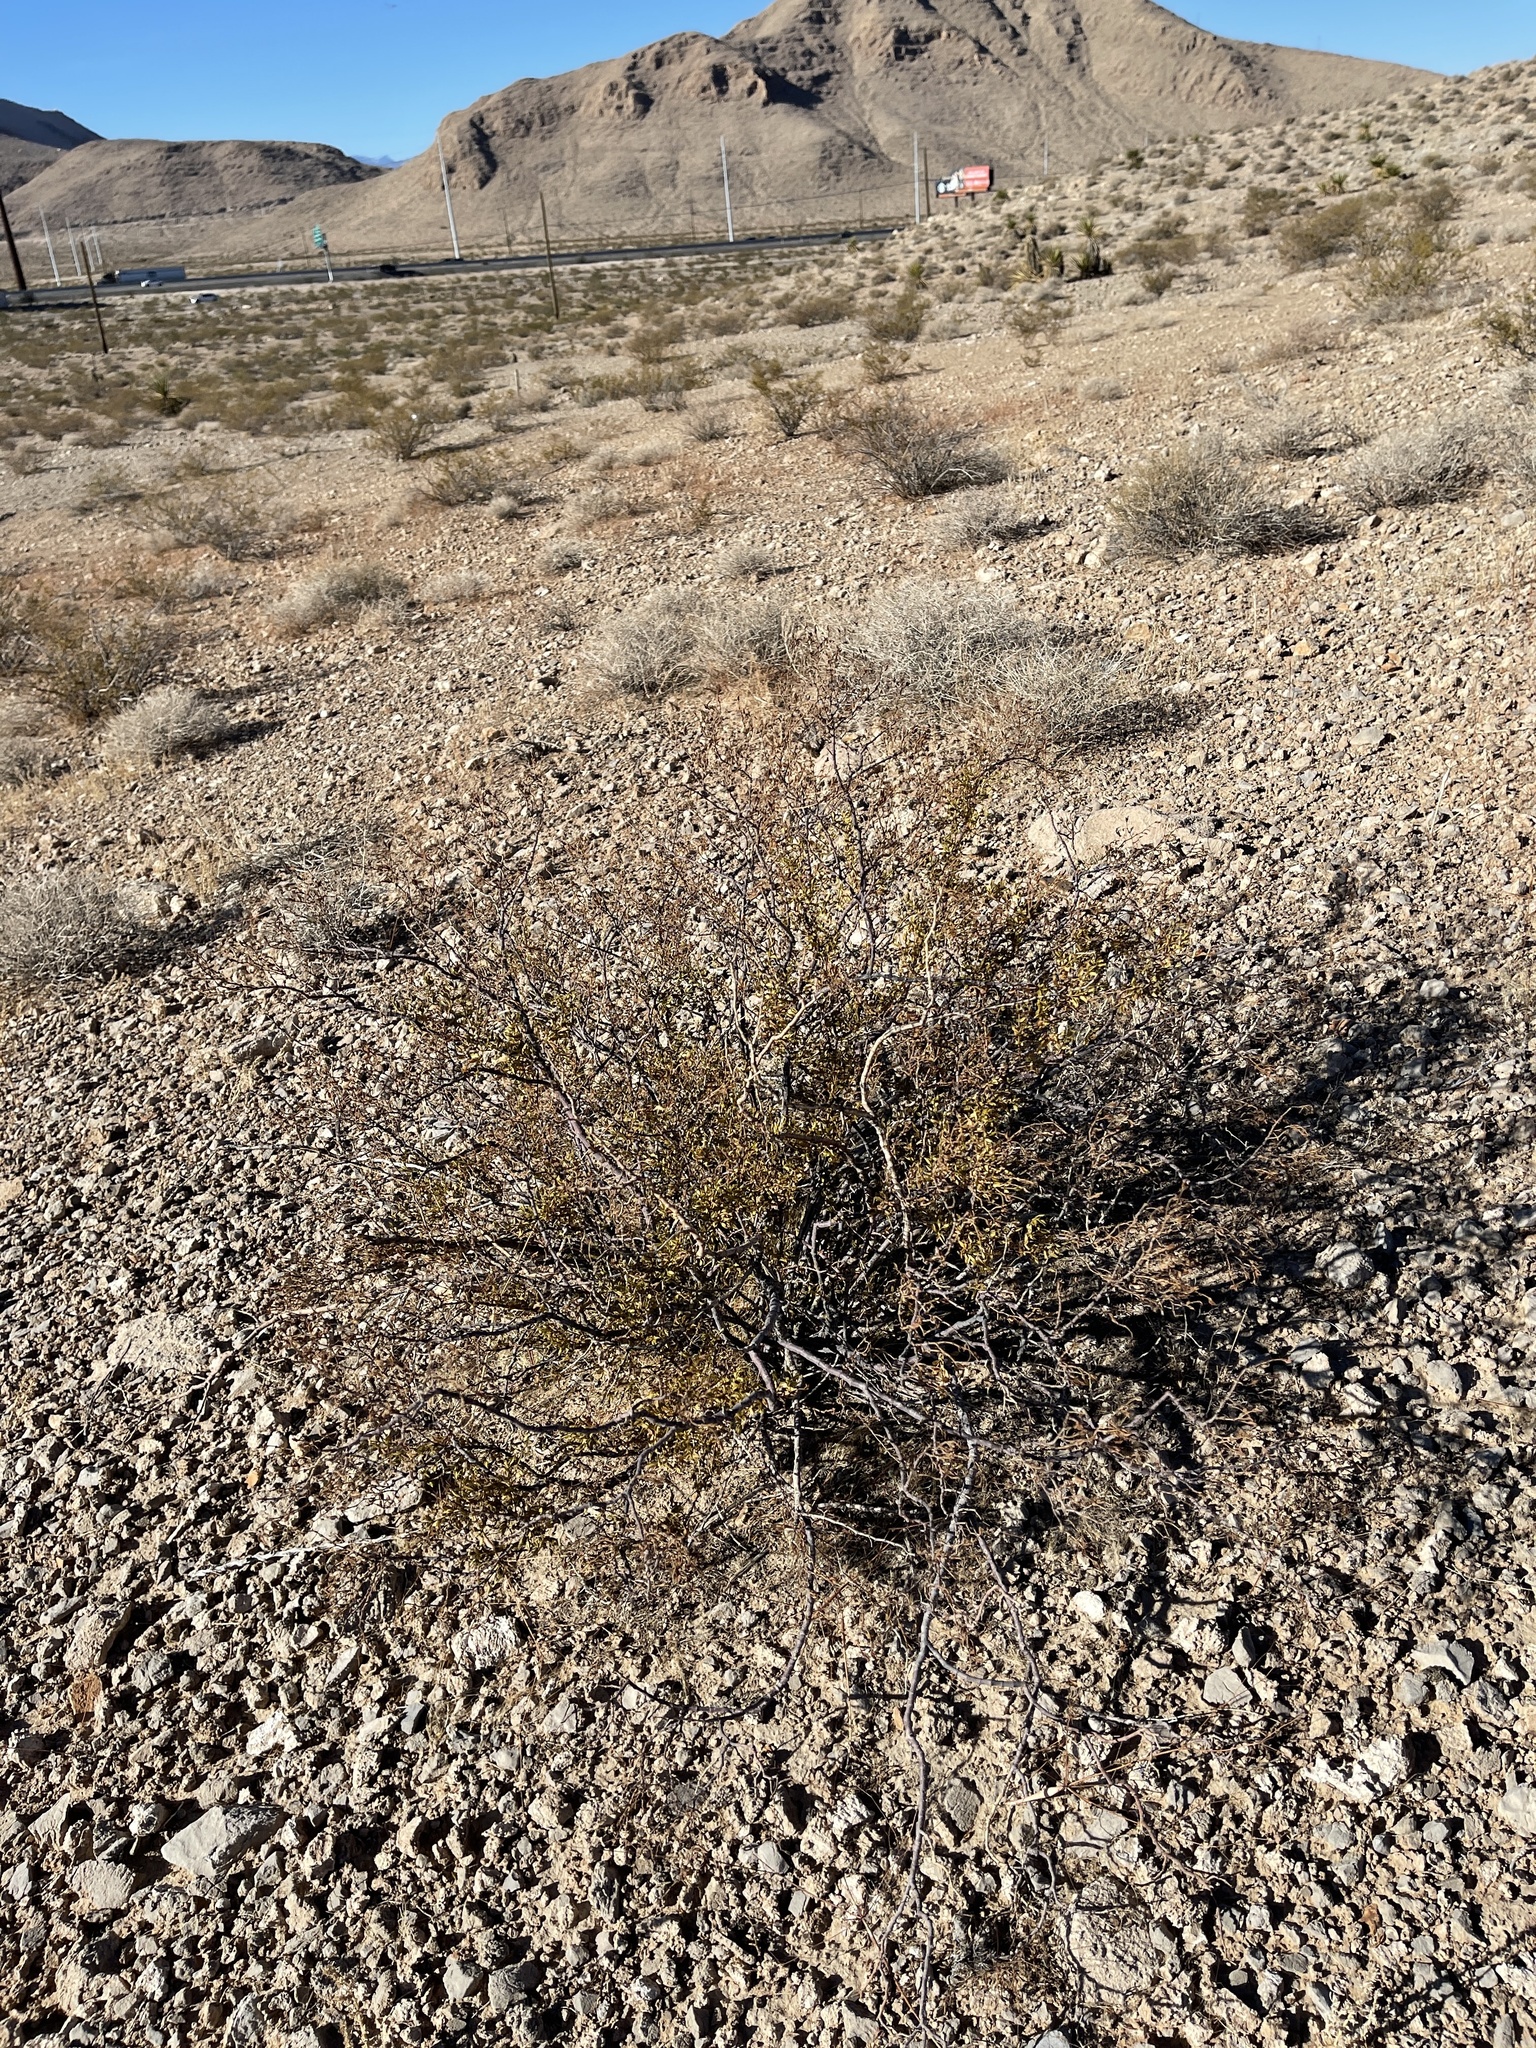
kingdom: Plantae
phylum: Tracheophyta
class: Magnoliopsida
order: Zygophyllales
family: Zygophyllaceae
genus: Larrea
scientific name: Larrea tridentata
